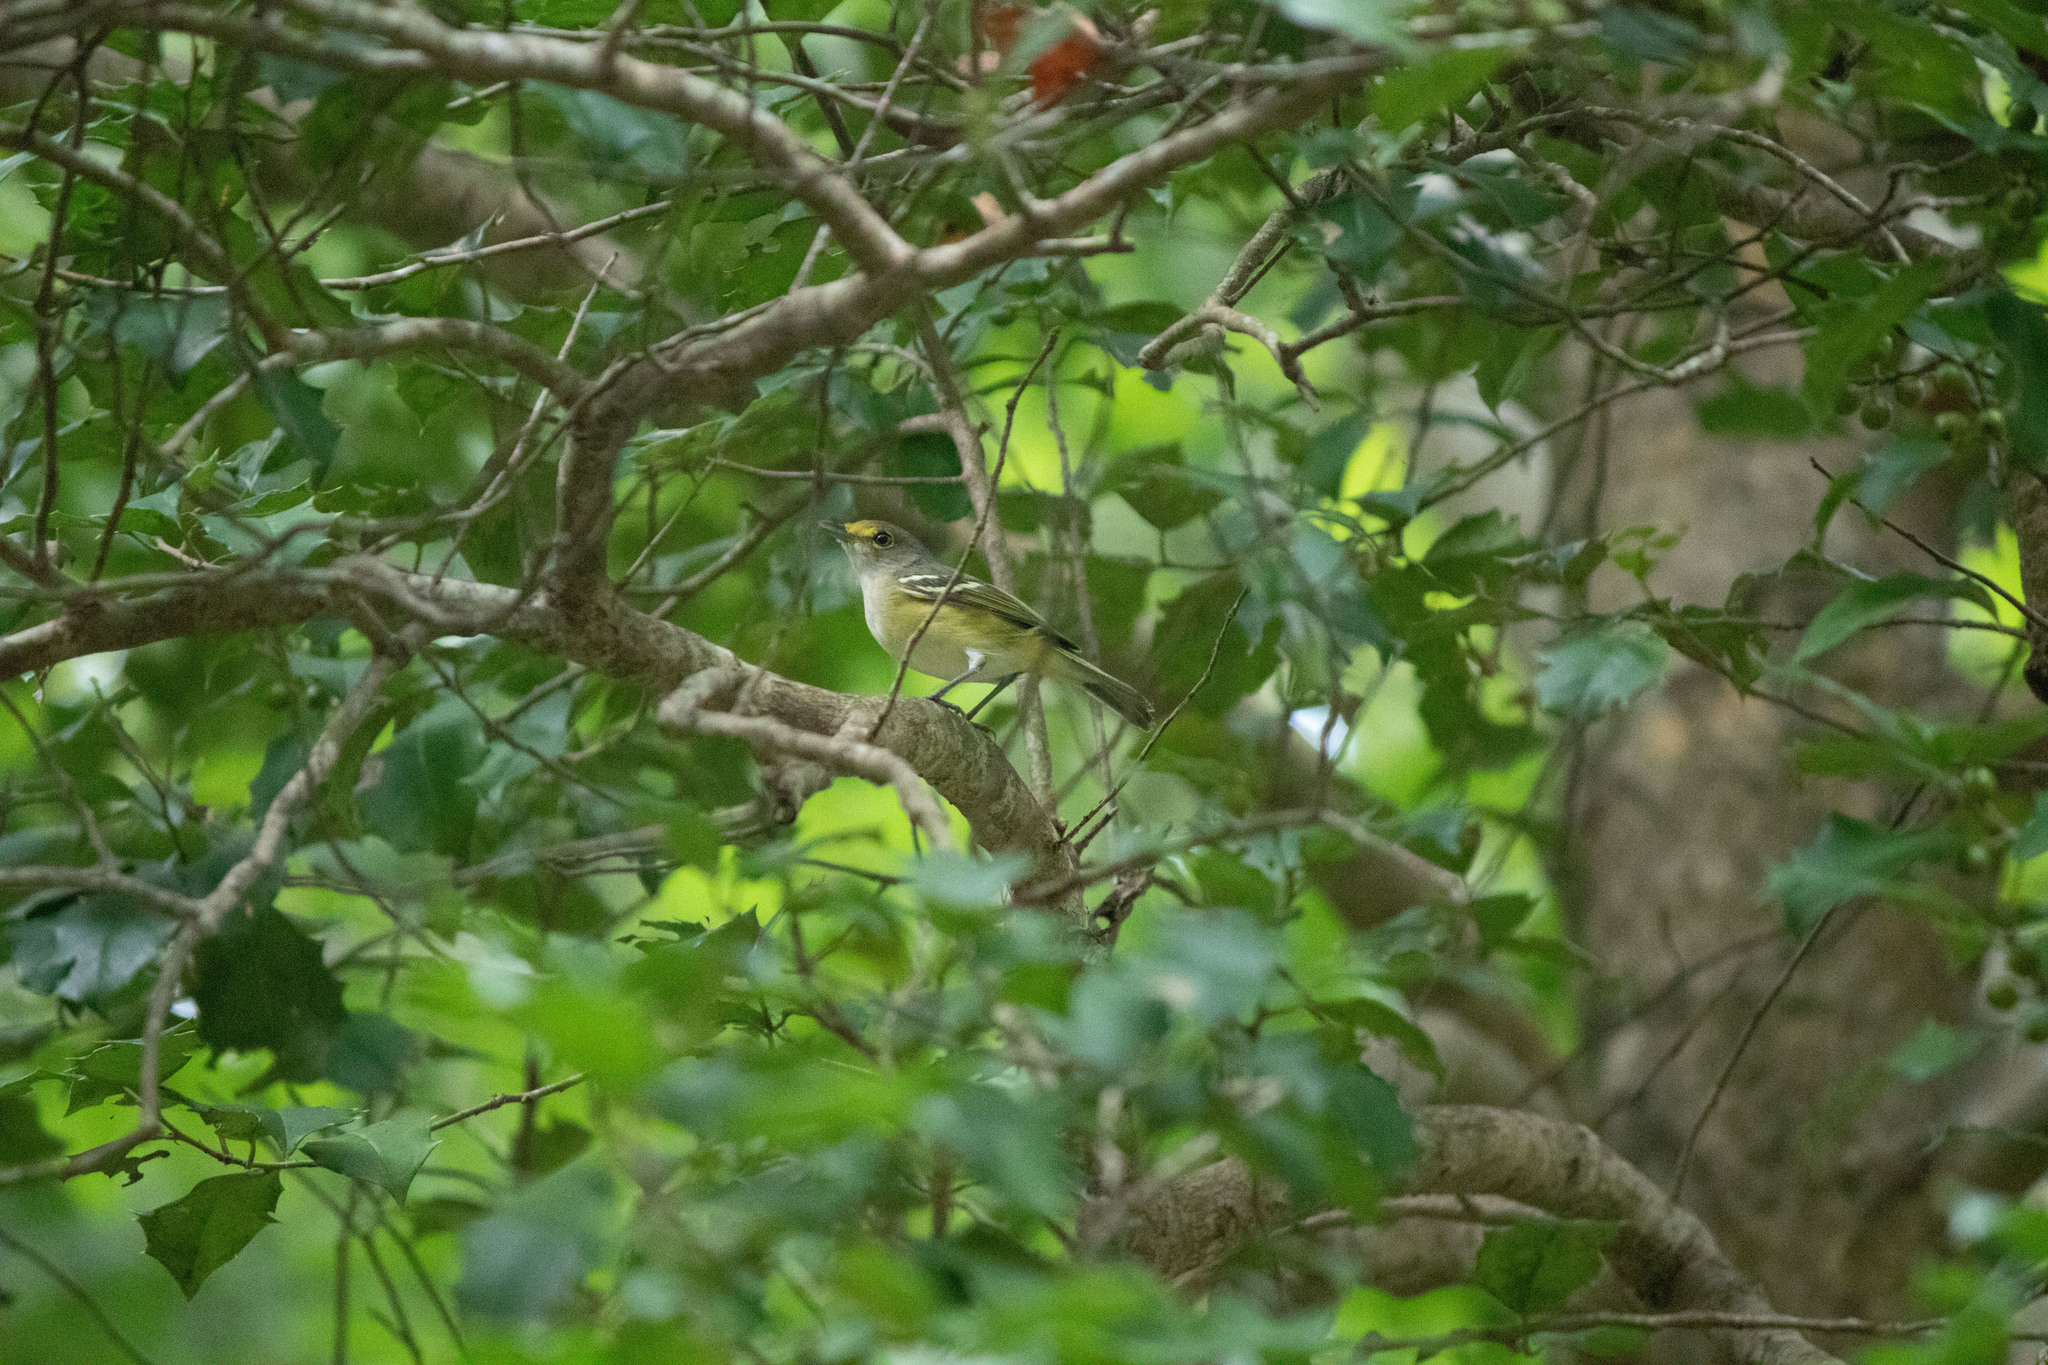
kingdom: Animalia
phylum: Chordata
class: Aves
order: Passeriformes
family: Vireonidae
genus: Vireo
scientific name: Vireo griseus
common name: White-eyed vireo
